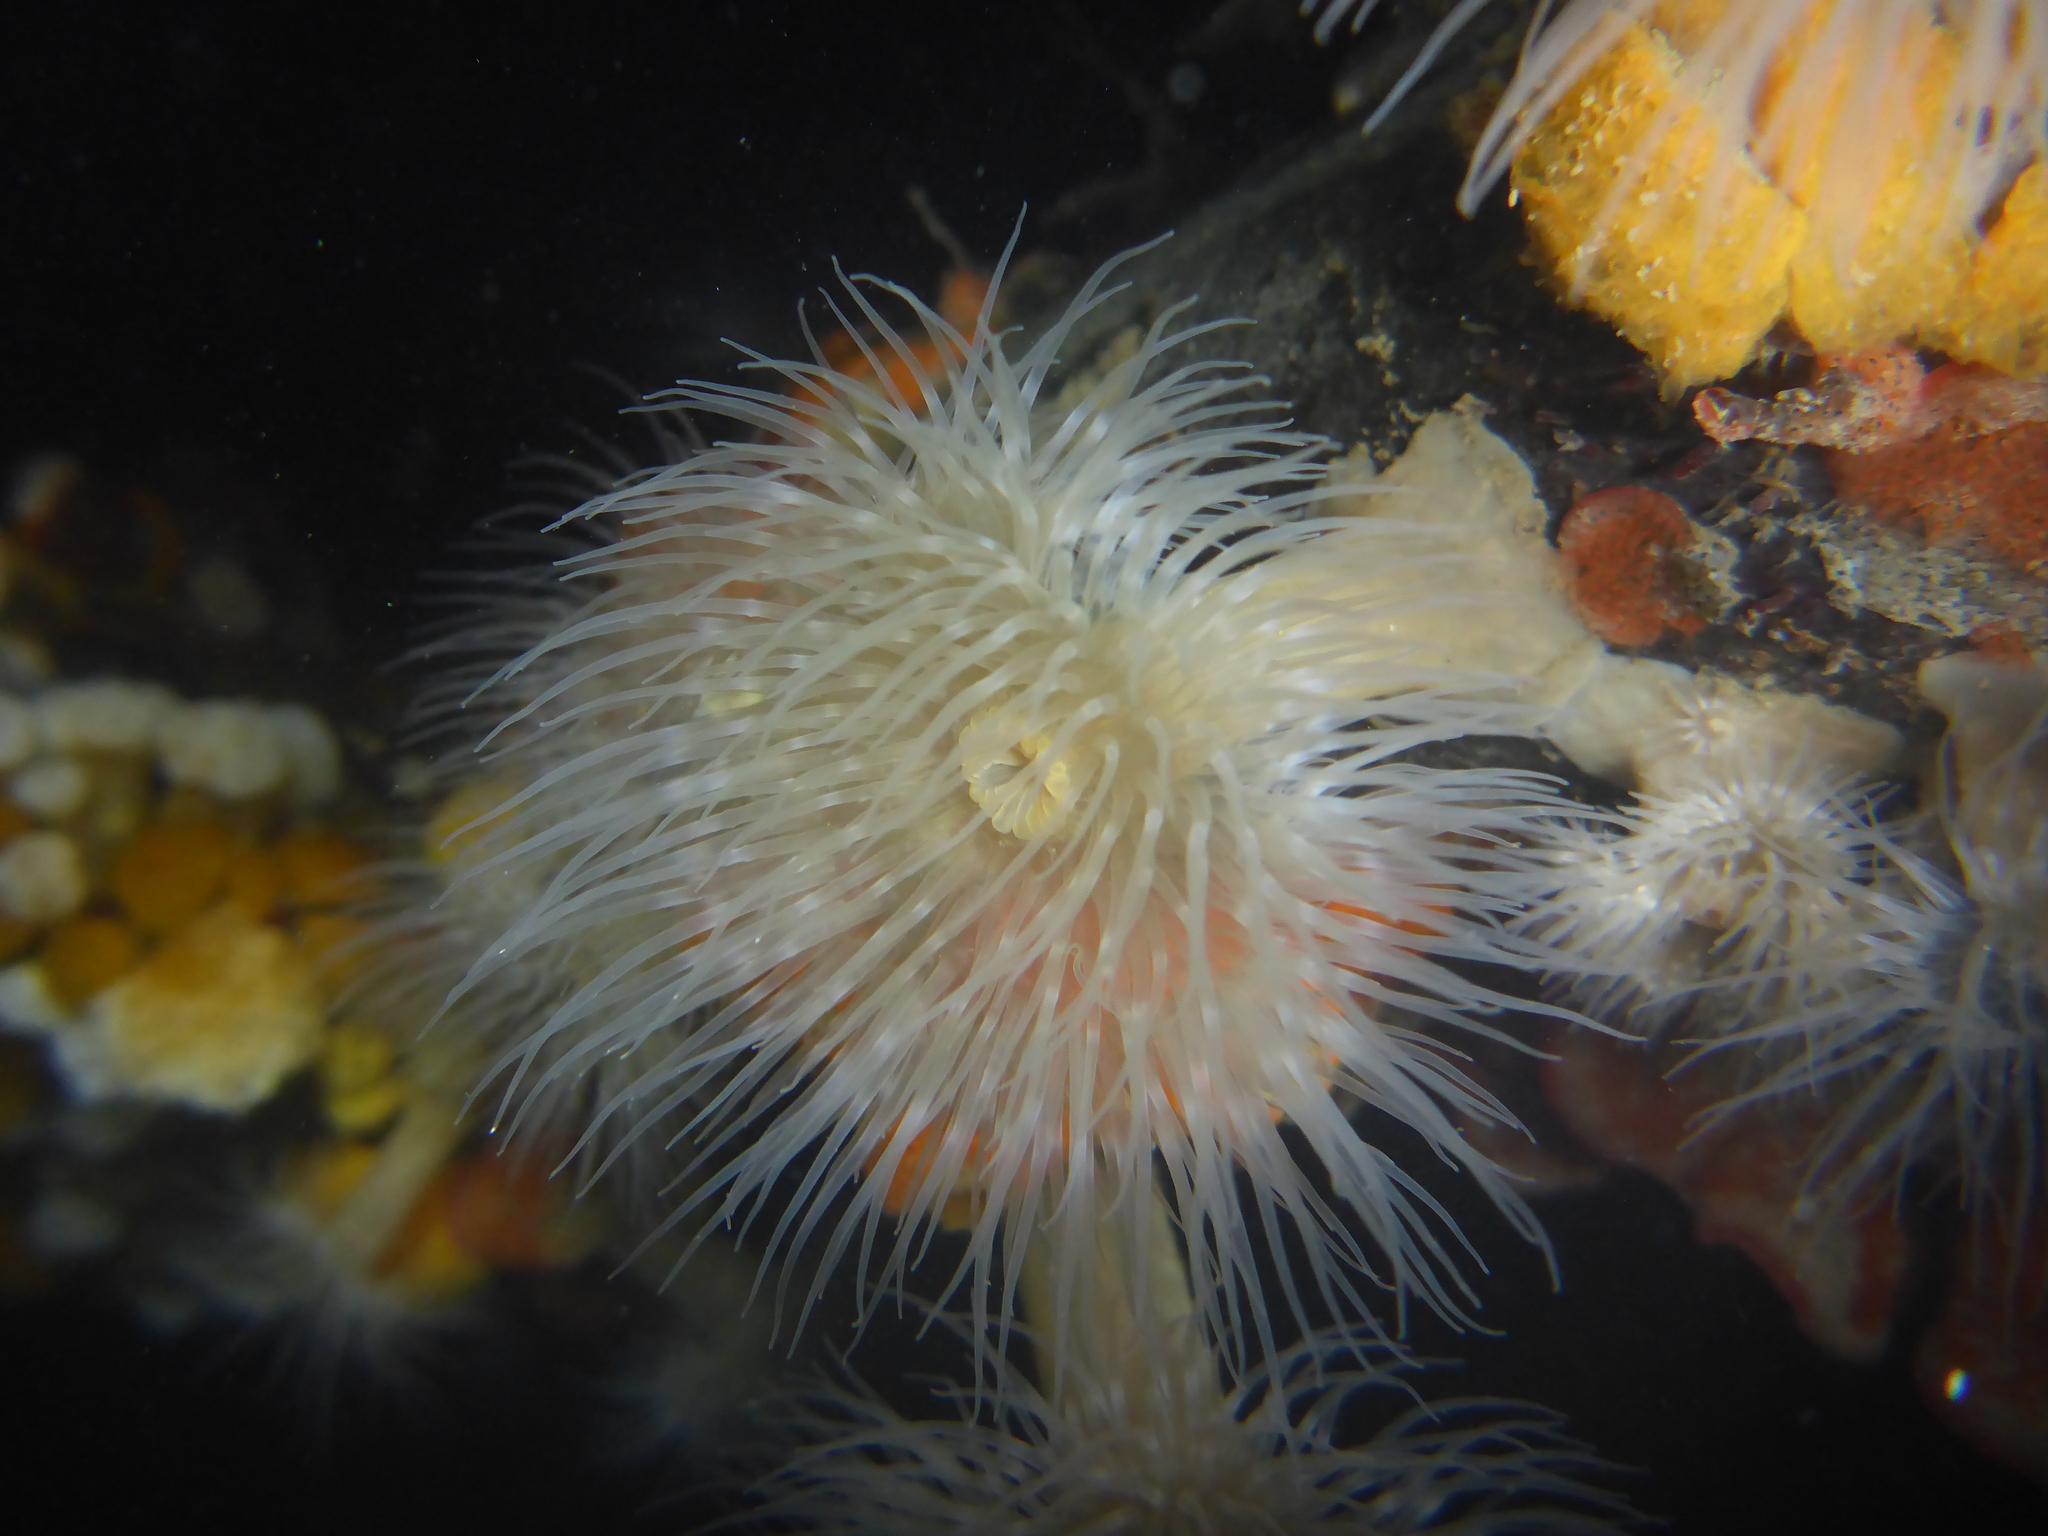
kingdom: Animalia
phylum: Cnidaria
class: Anthozoa
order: Actiniaria
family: Metridiidae
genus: Metridium
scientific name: Metridium senile
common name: Clonal plumose anemone
